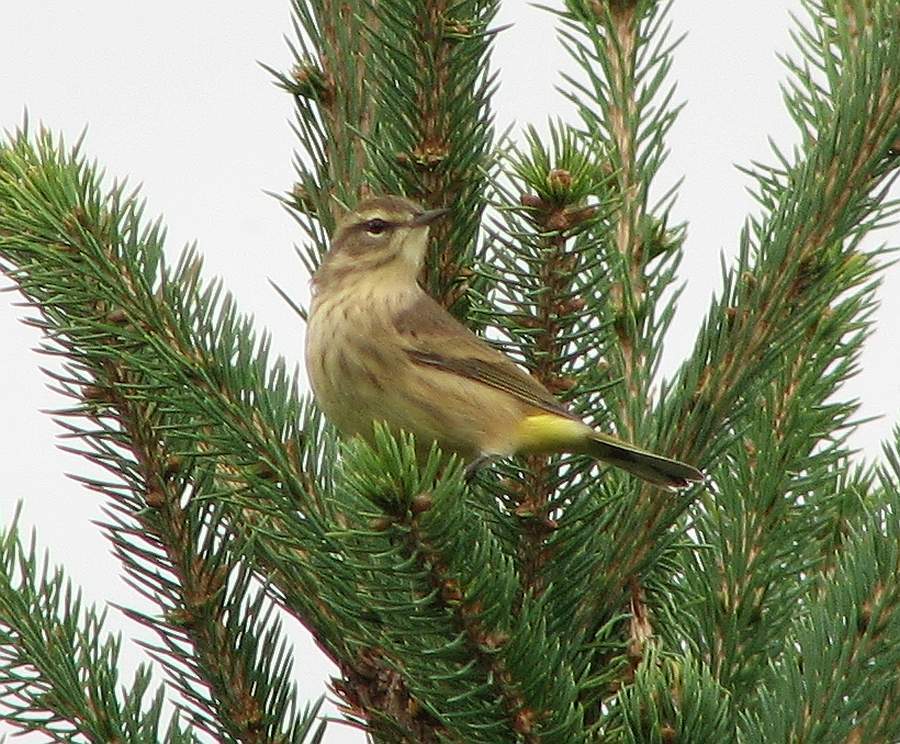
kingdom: Animalia
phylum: Chordata
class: Aves
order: Passeriformes
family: Parulidae
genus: Setophaga
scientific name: Setophaga palmarum
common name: Palm warbler
